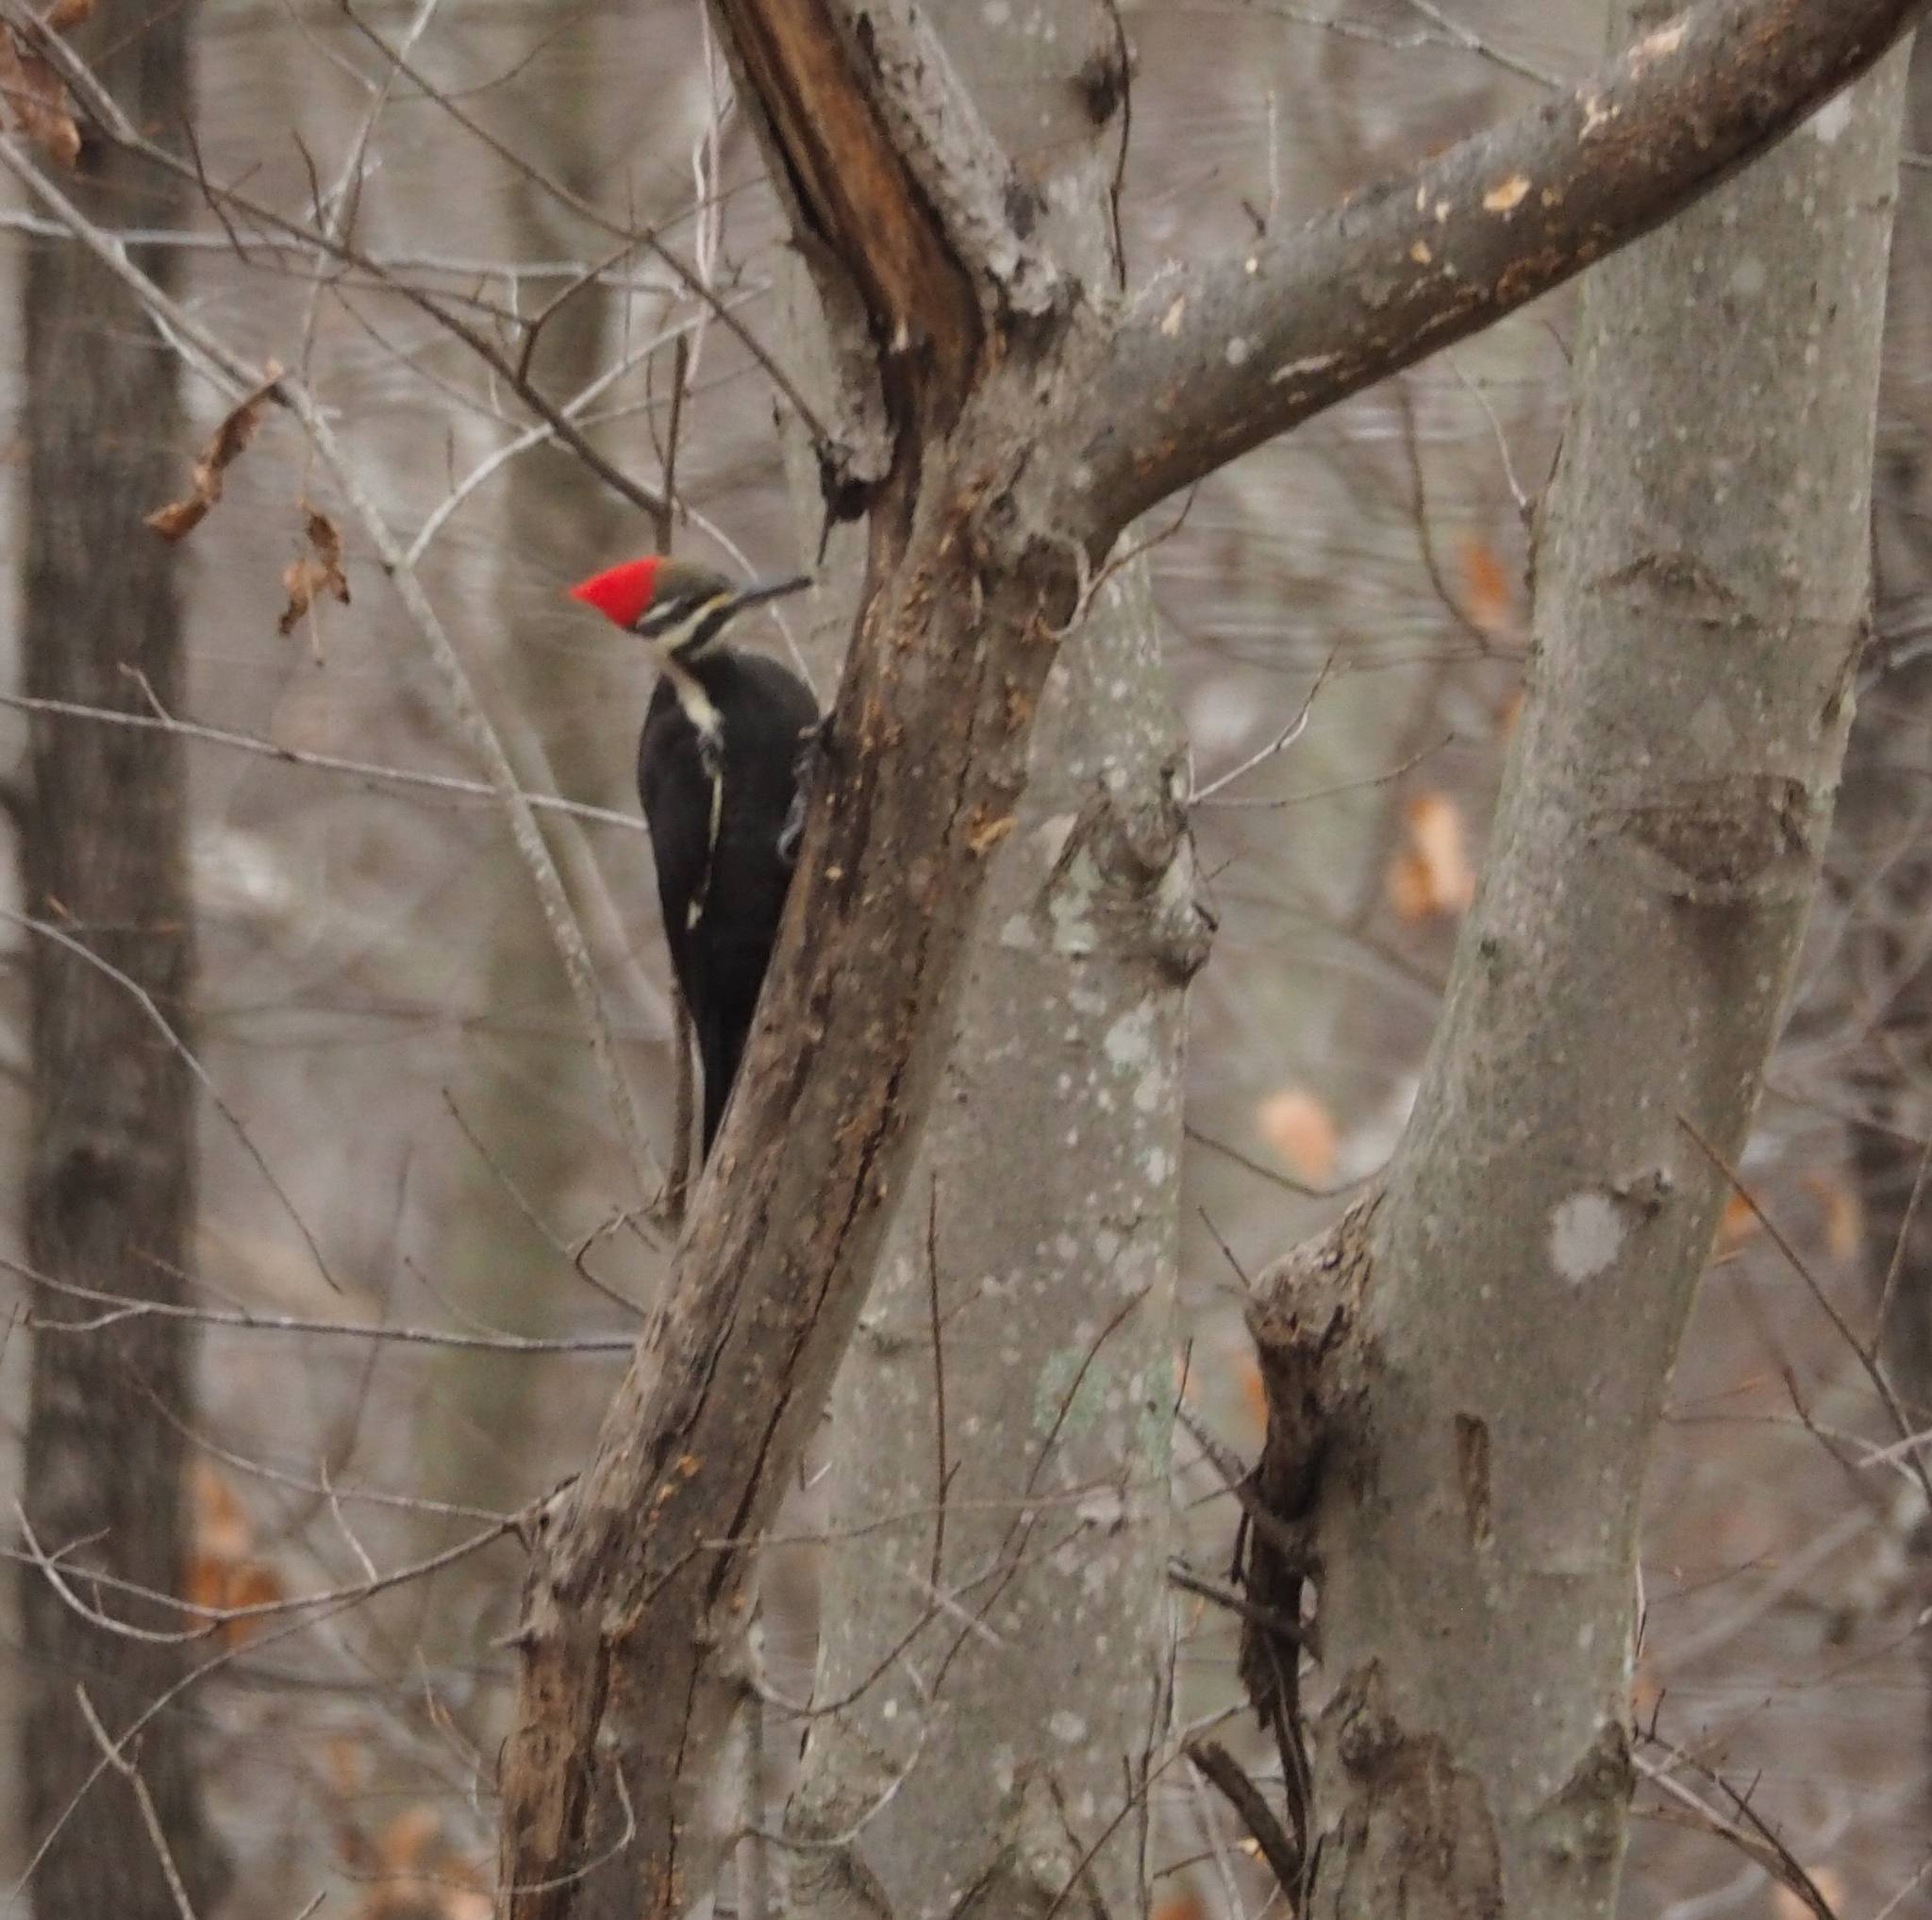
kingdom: Animalia
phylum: Chordata
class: Aves
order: Piciformes
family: Picidae
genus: Dryocopus
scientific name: Dryocopus pileatus
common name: Pileated woodpecker
